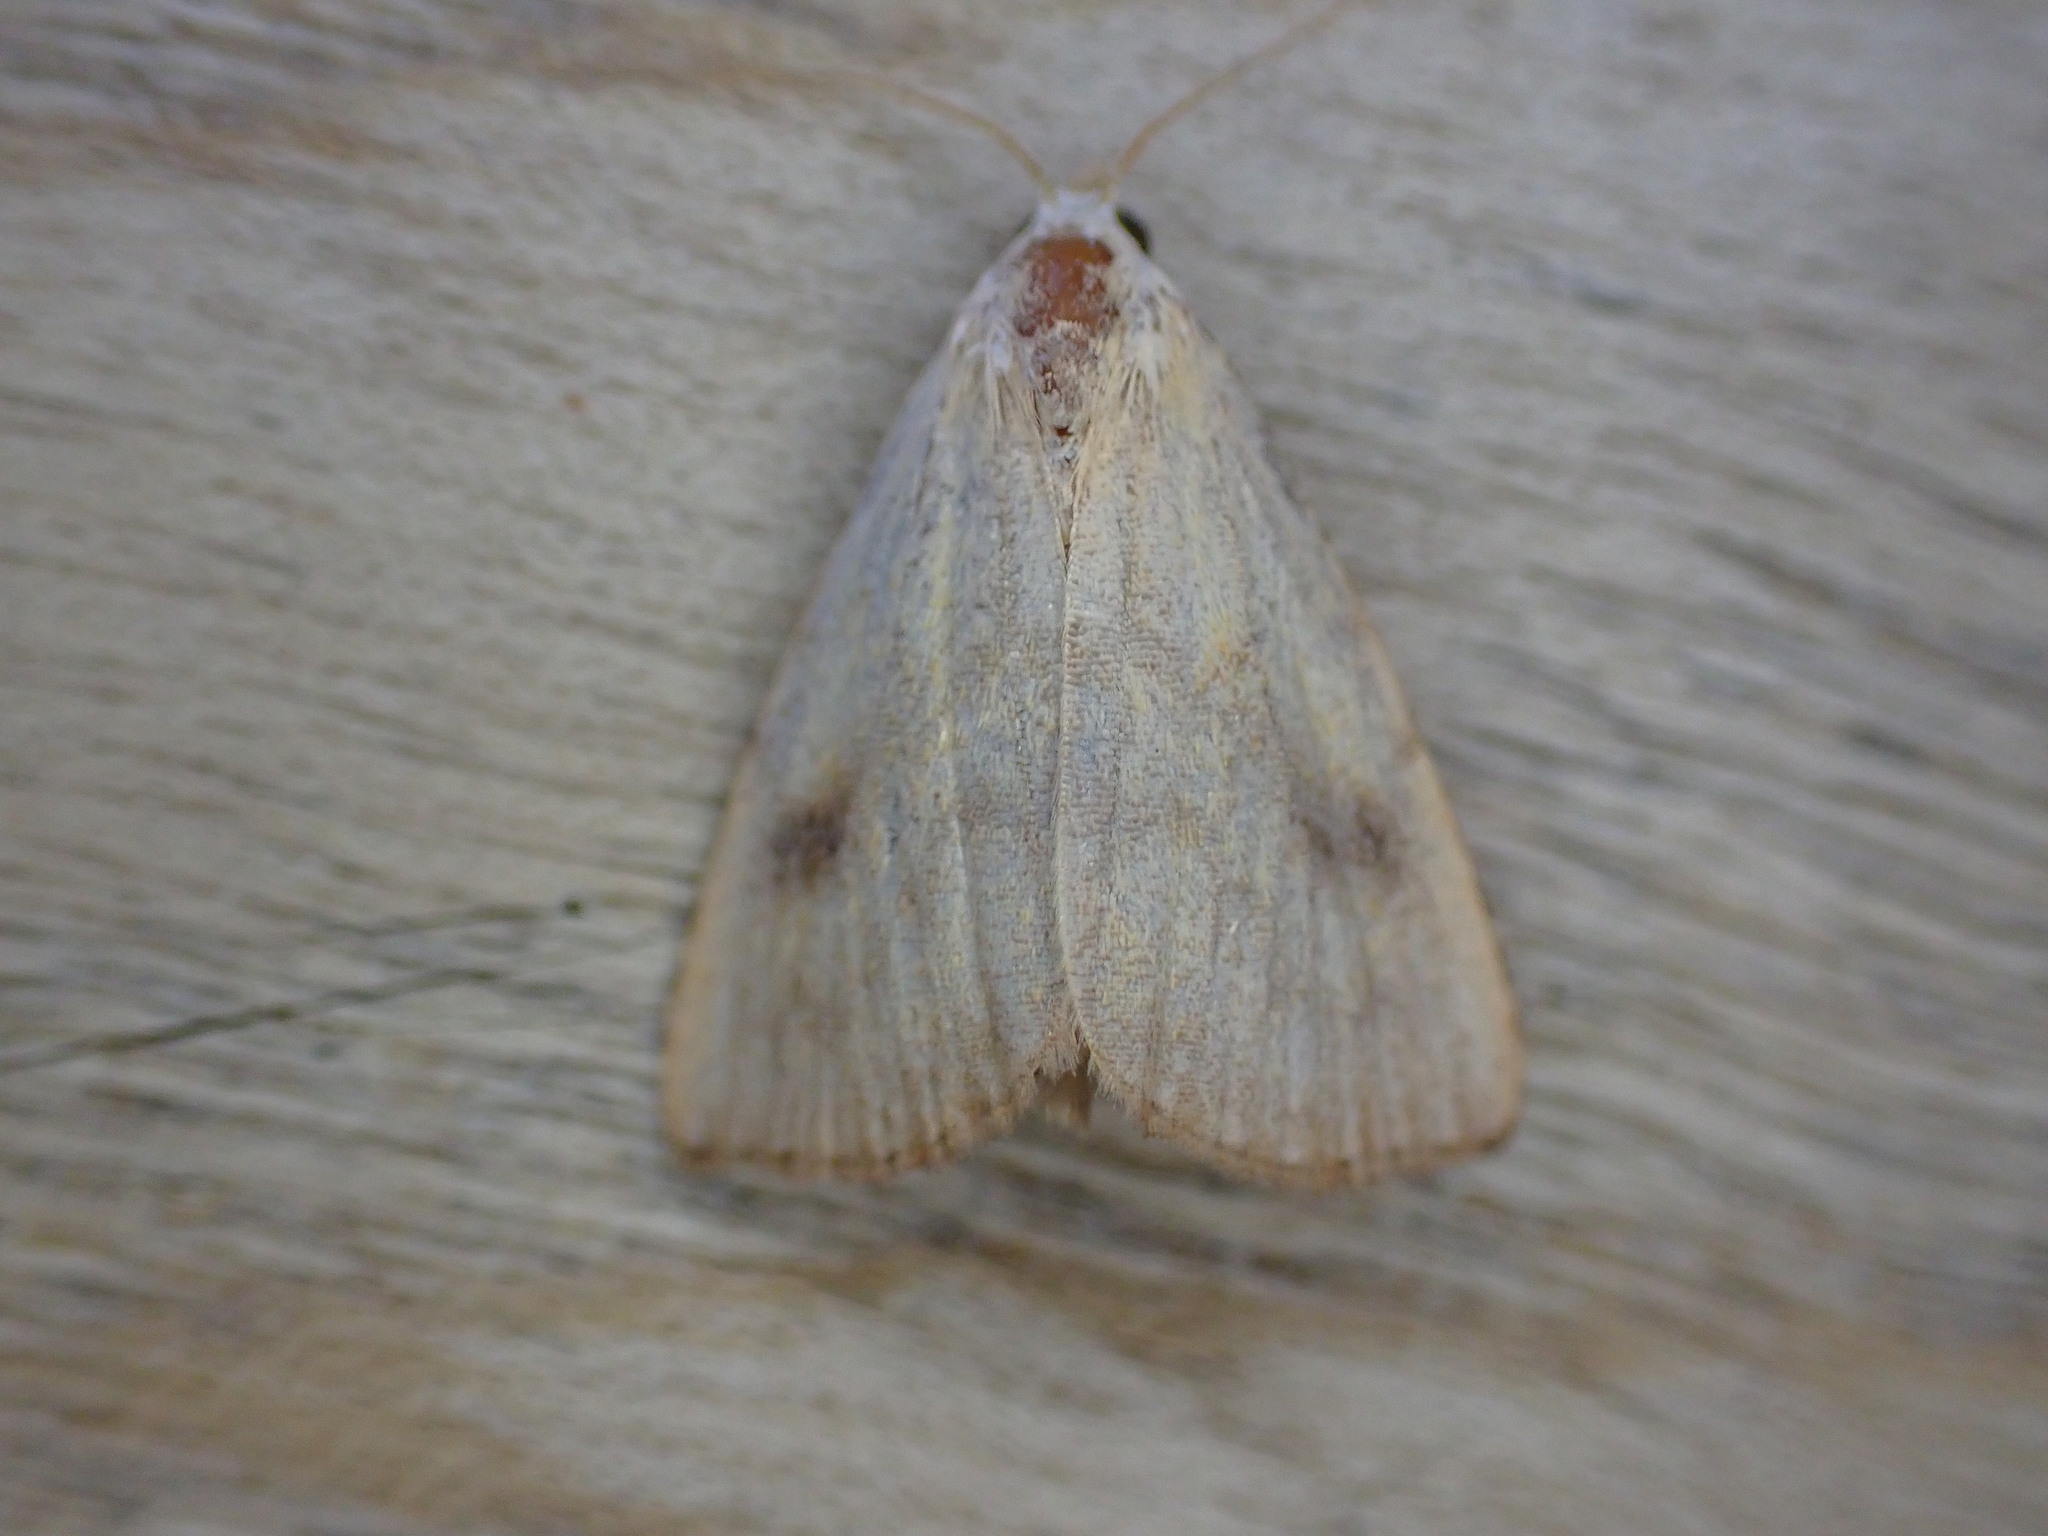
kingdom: Animalia
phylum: Arthropoda
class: Insecta
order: Lepidoptera
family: Erebidae
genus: Rivula
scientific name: Rivula sericealis
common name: Straw dot
